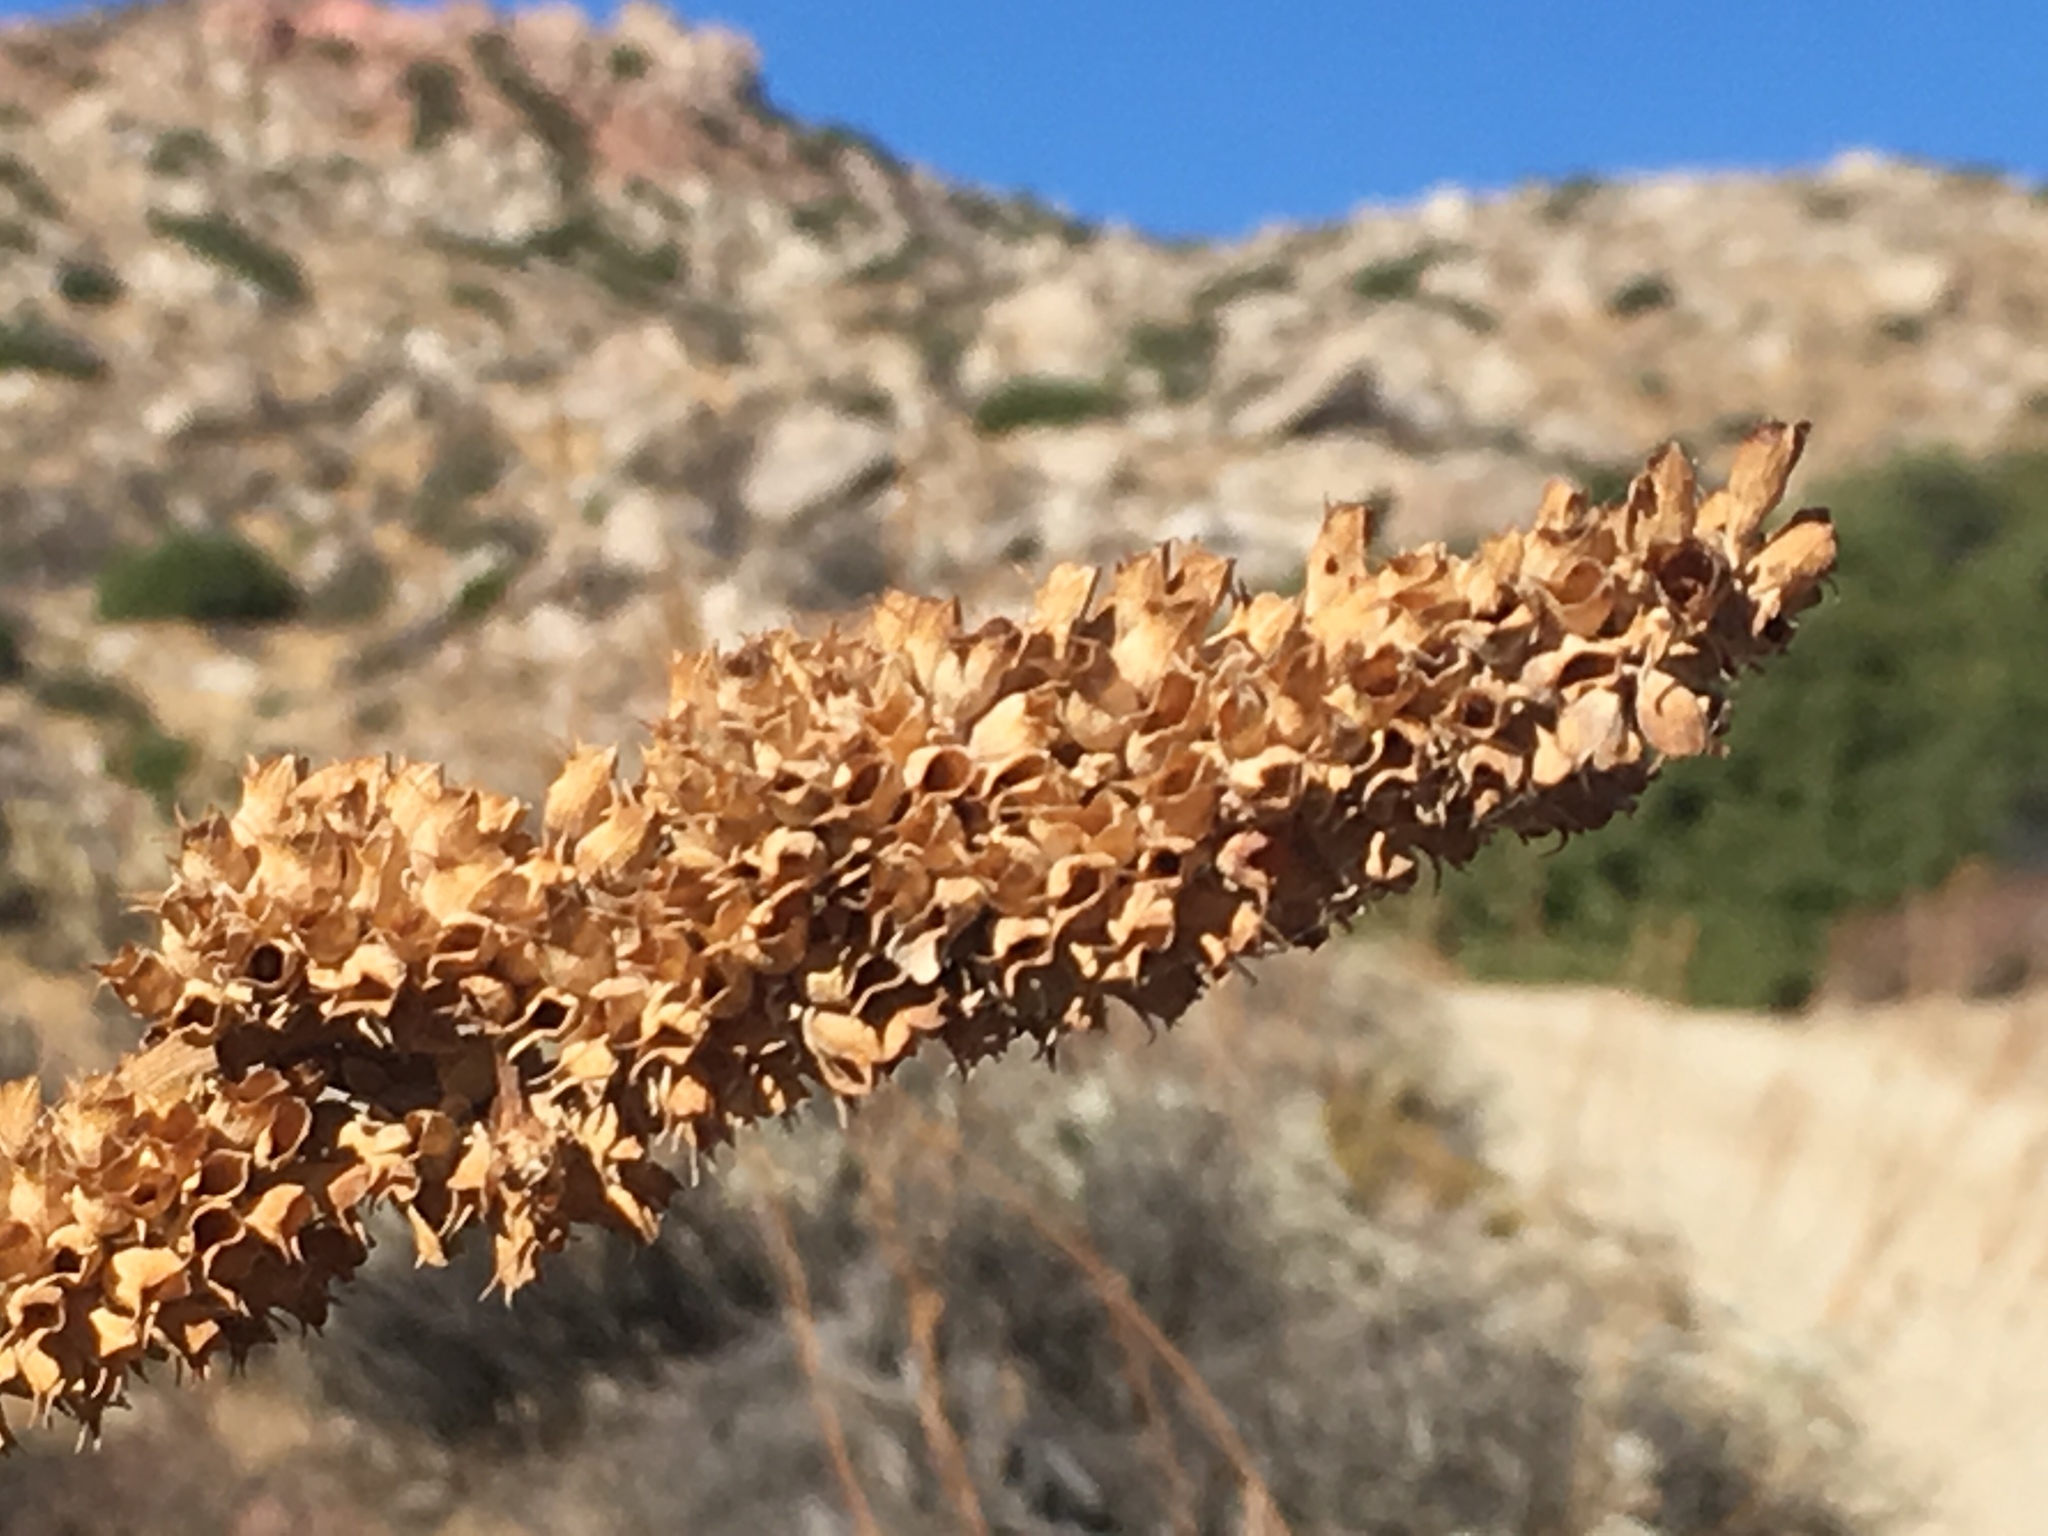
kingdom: Plantae
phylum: Tracheophyta
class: Magnoliopsida
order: Lamiales
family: Lamiaceae
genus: Salvia
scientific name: Salvia apiana
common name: White sage
